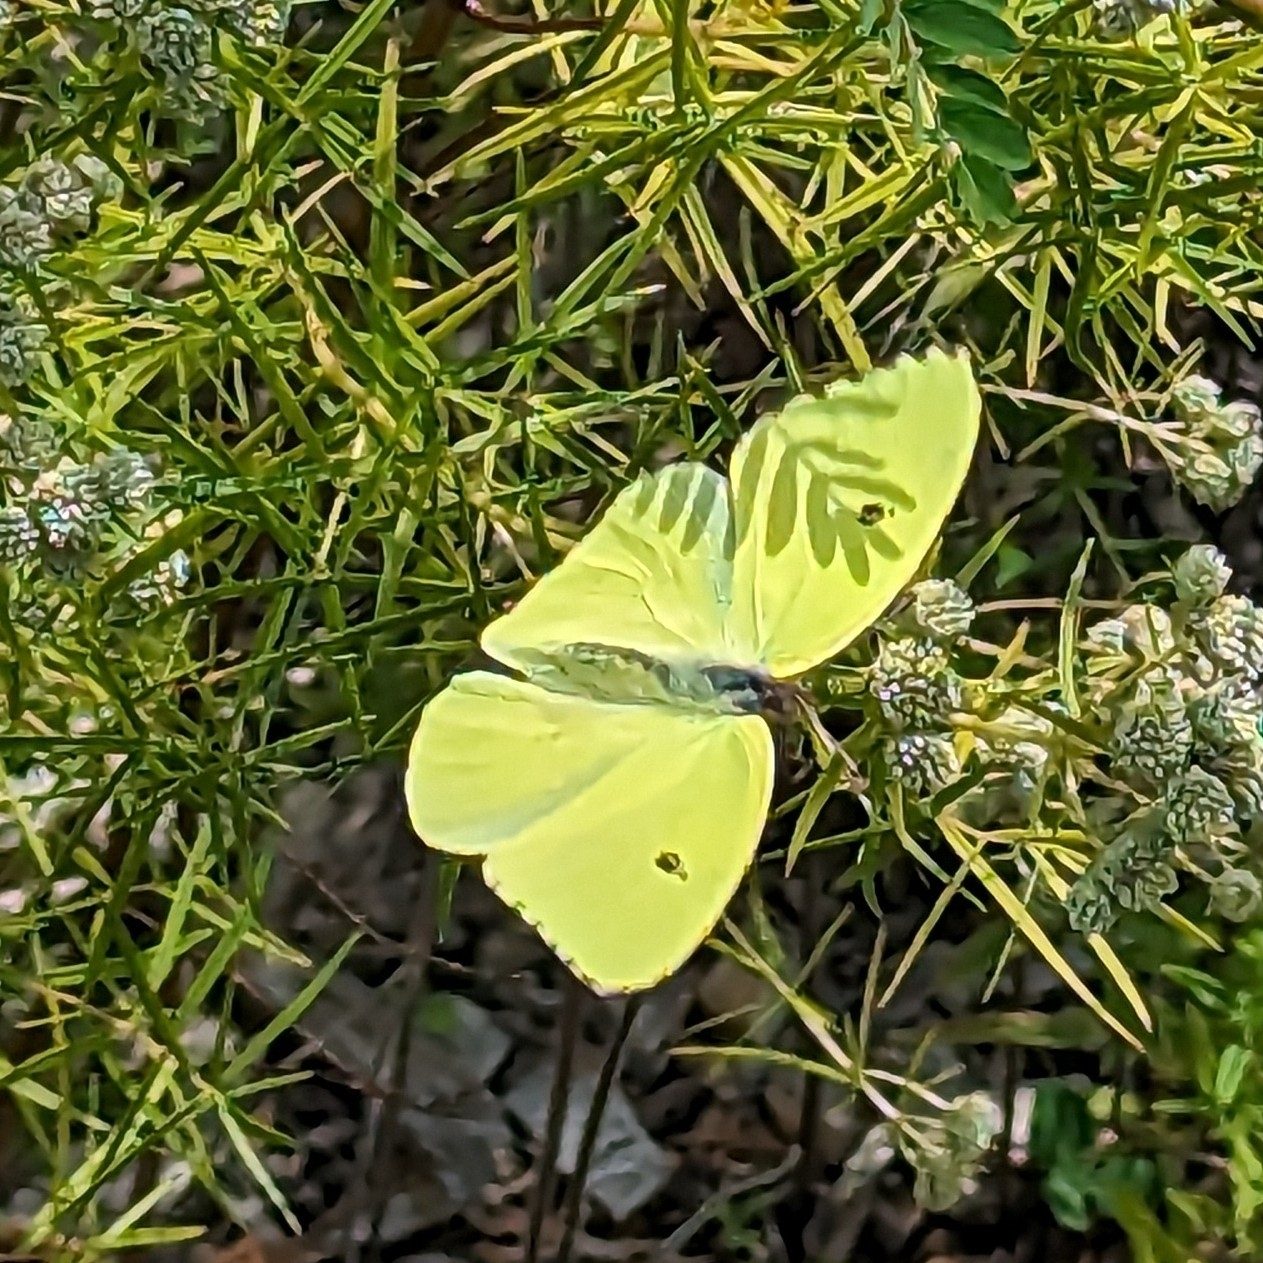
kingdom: Animalia
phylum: Arthropoda
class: Insecta
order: Lepidoptera
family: Pieridae
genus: Phoebis
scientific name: Phoebis sennae
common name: Cloudless sulphur
